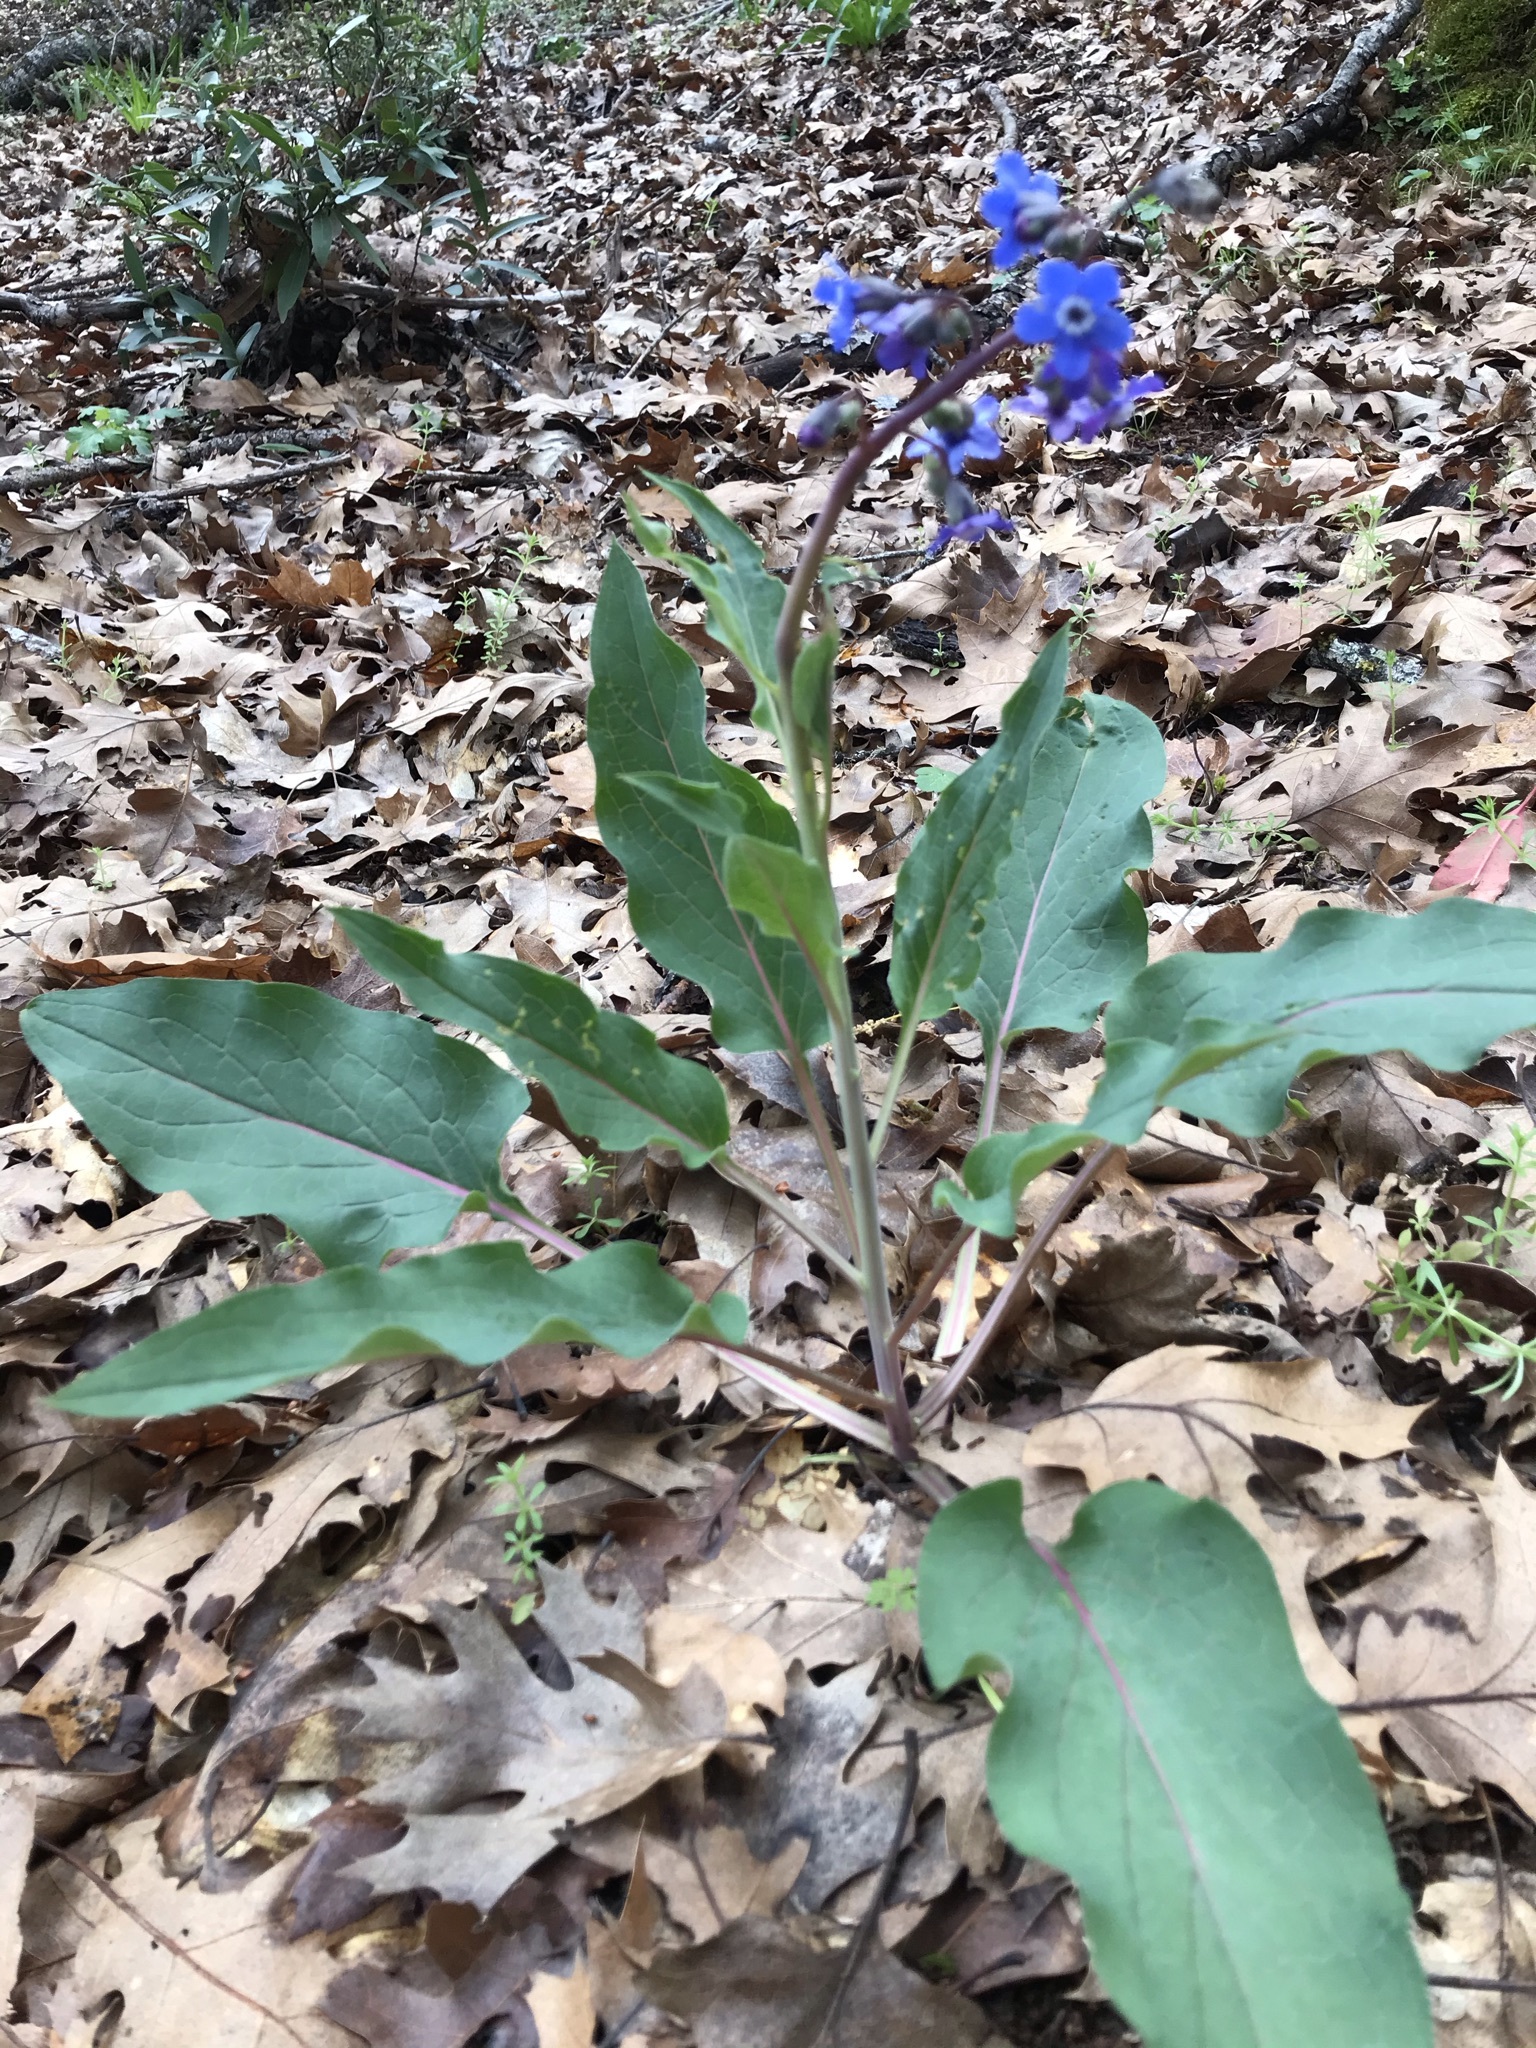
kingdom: Plantae
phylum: Tracheophyta
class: Magnoliopsida
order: Boraginales
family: Boraginaceae
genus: Adelinia
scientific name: Adelinia grande
